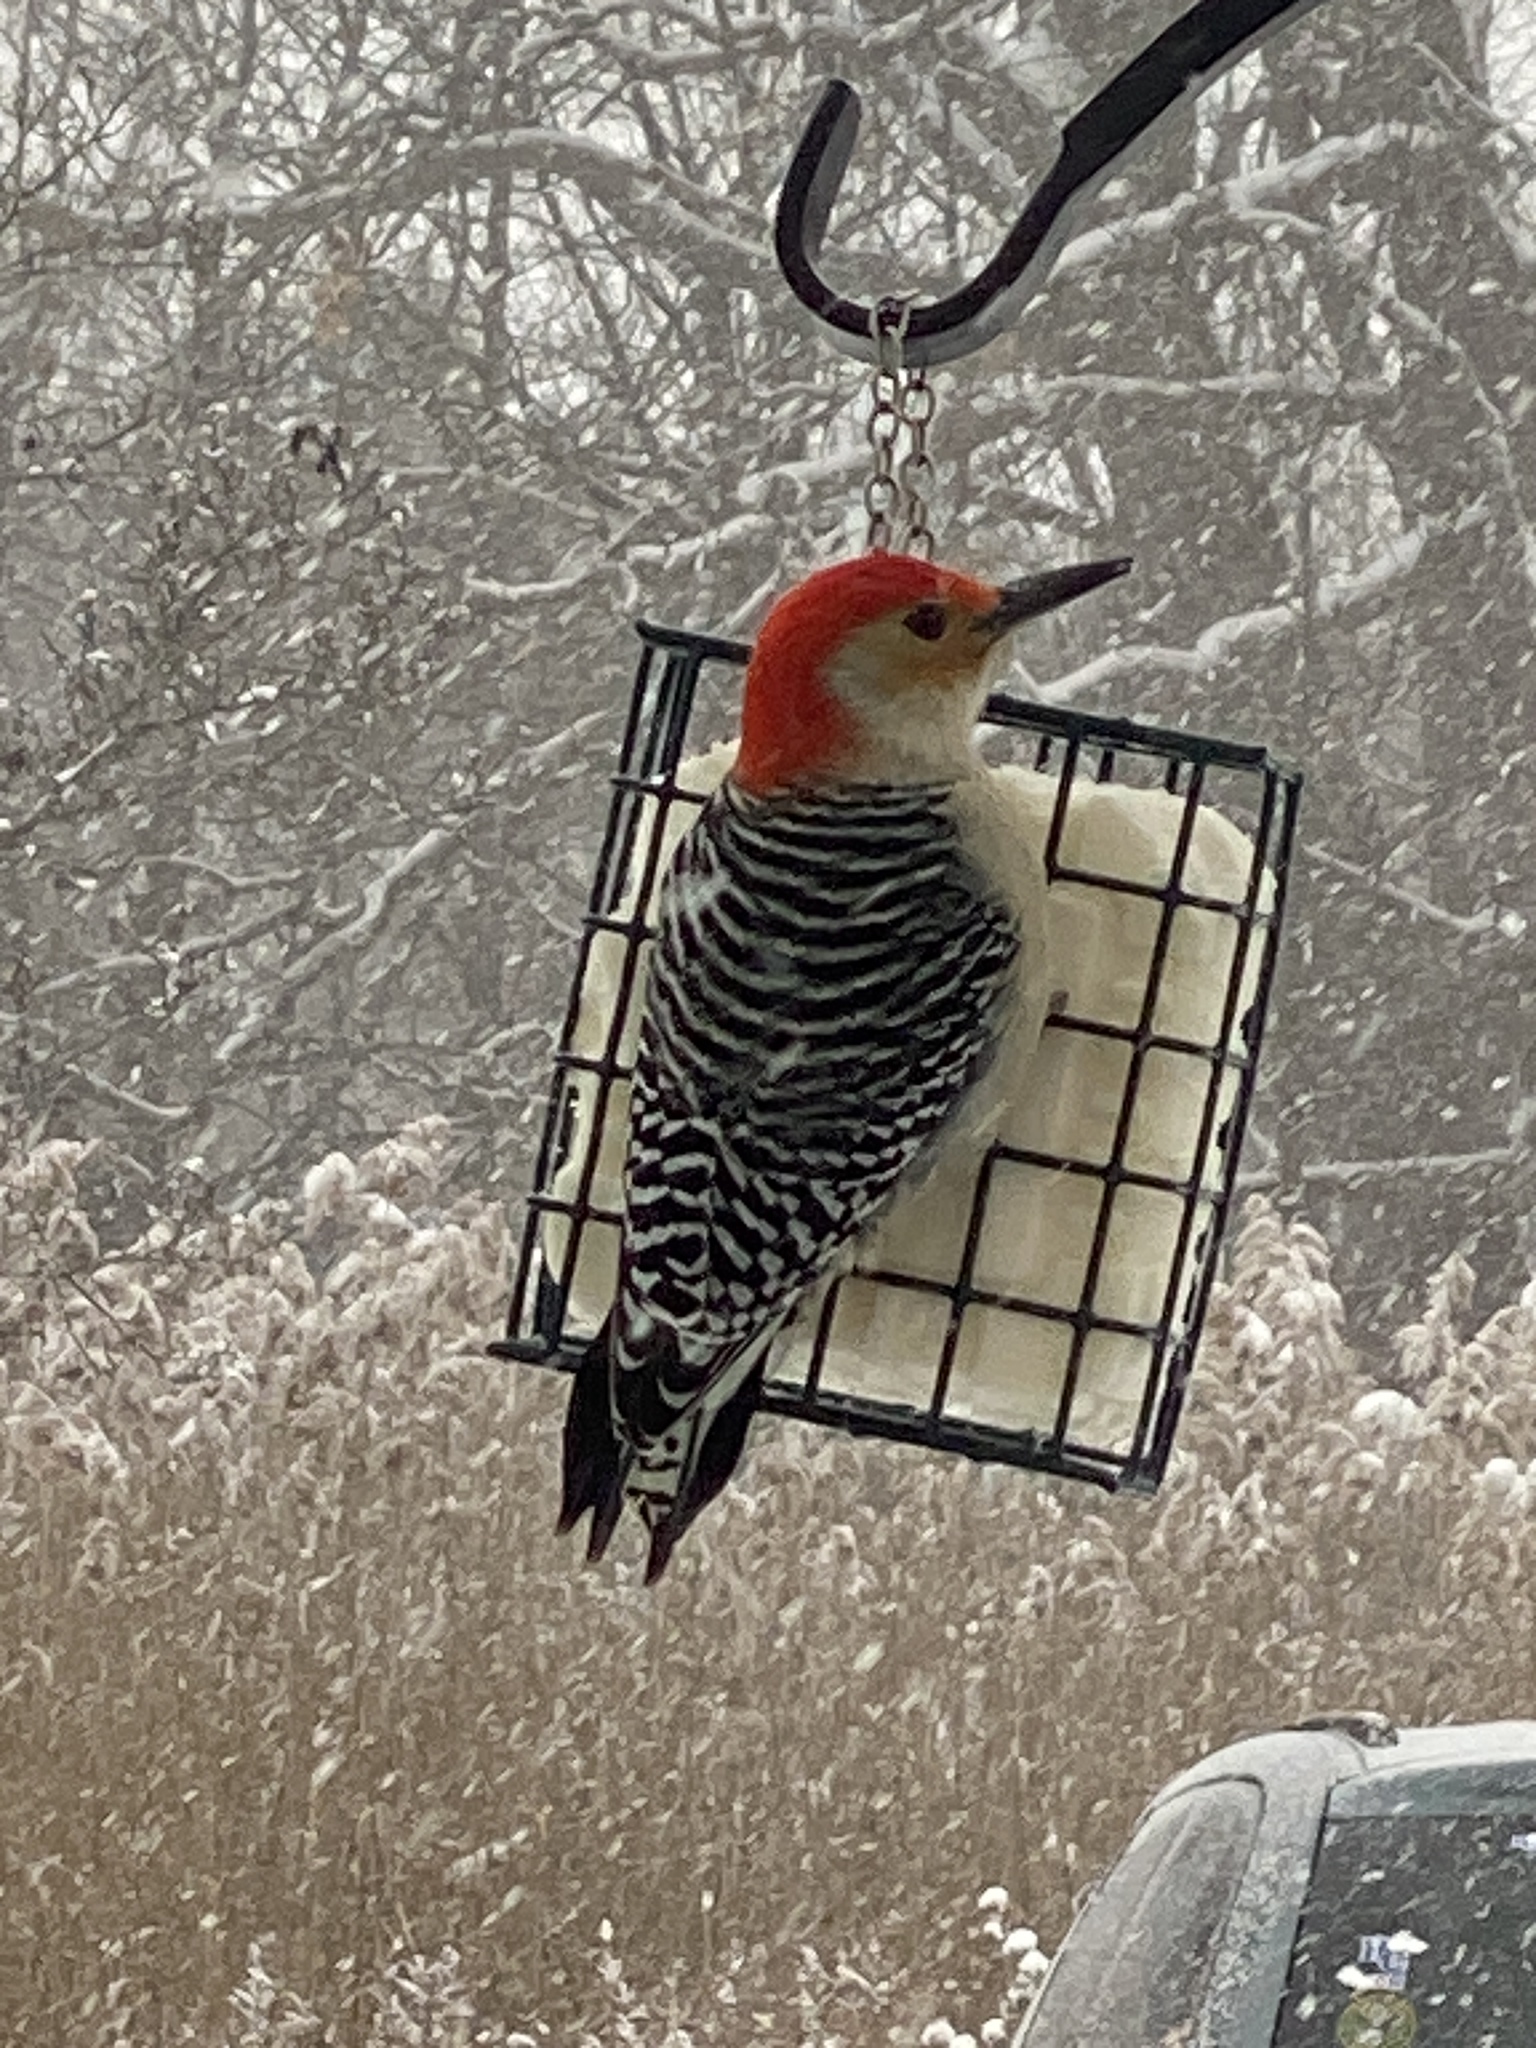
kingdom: Animalia
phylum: Chordata
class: Aves
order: Piciformes
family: Picidae
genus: Melanerpes
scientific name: Melanerpes carolinus
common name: Red-bellied woodpecker
